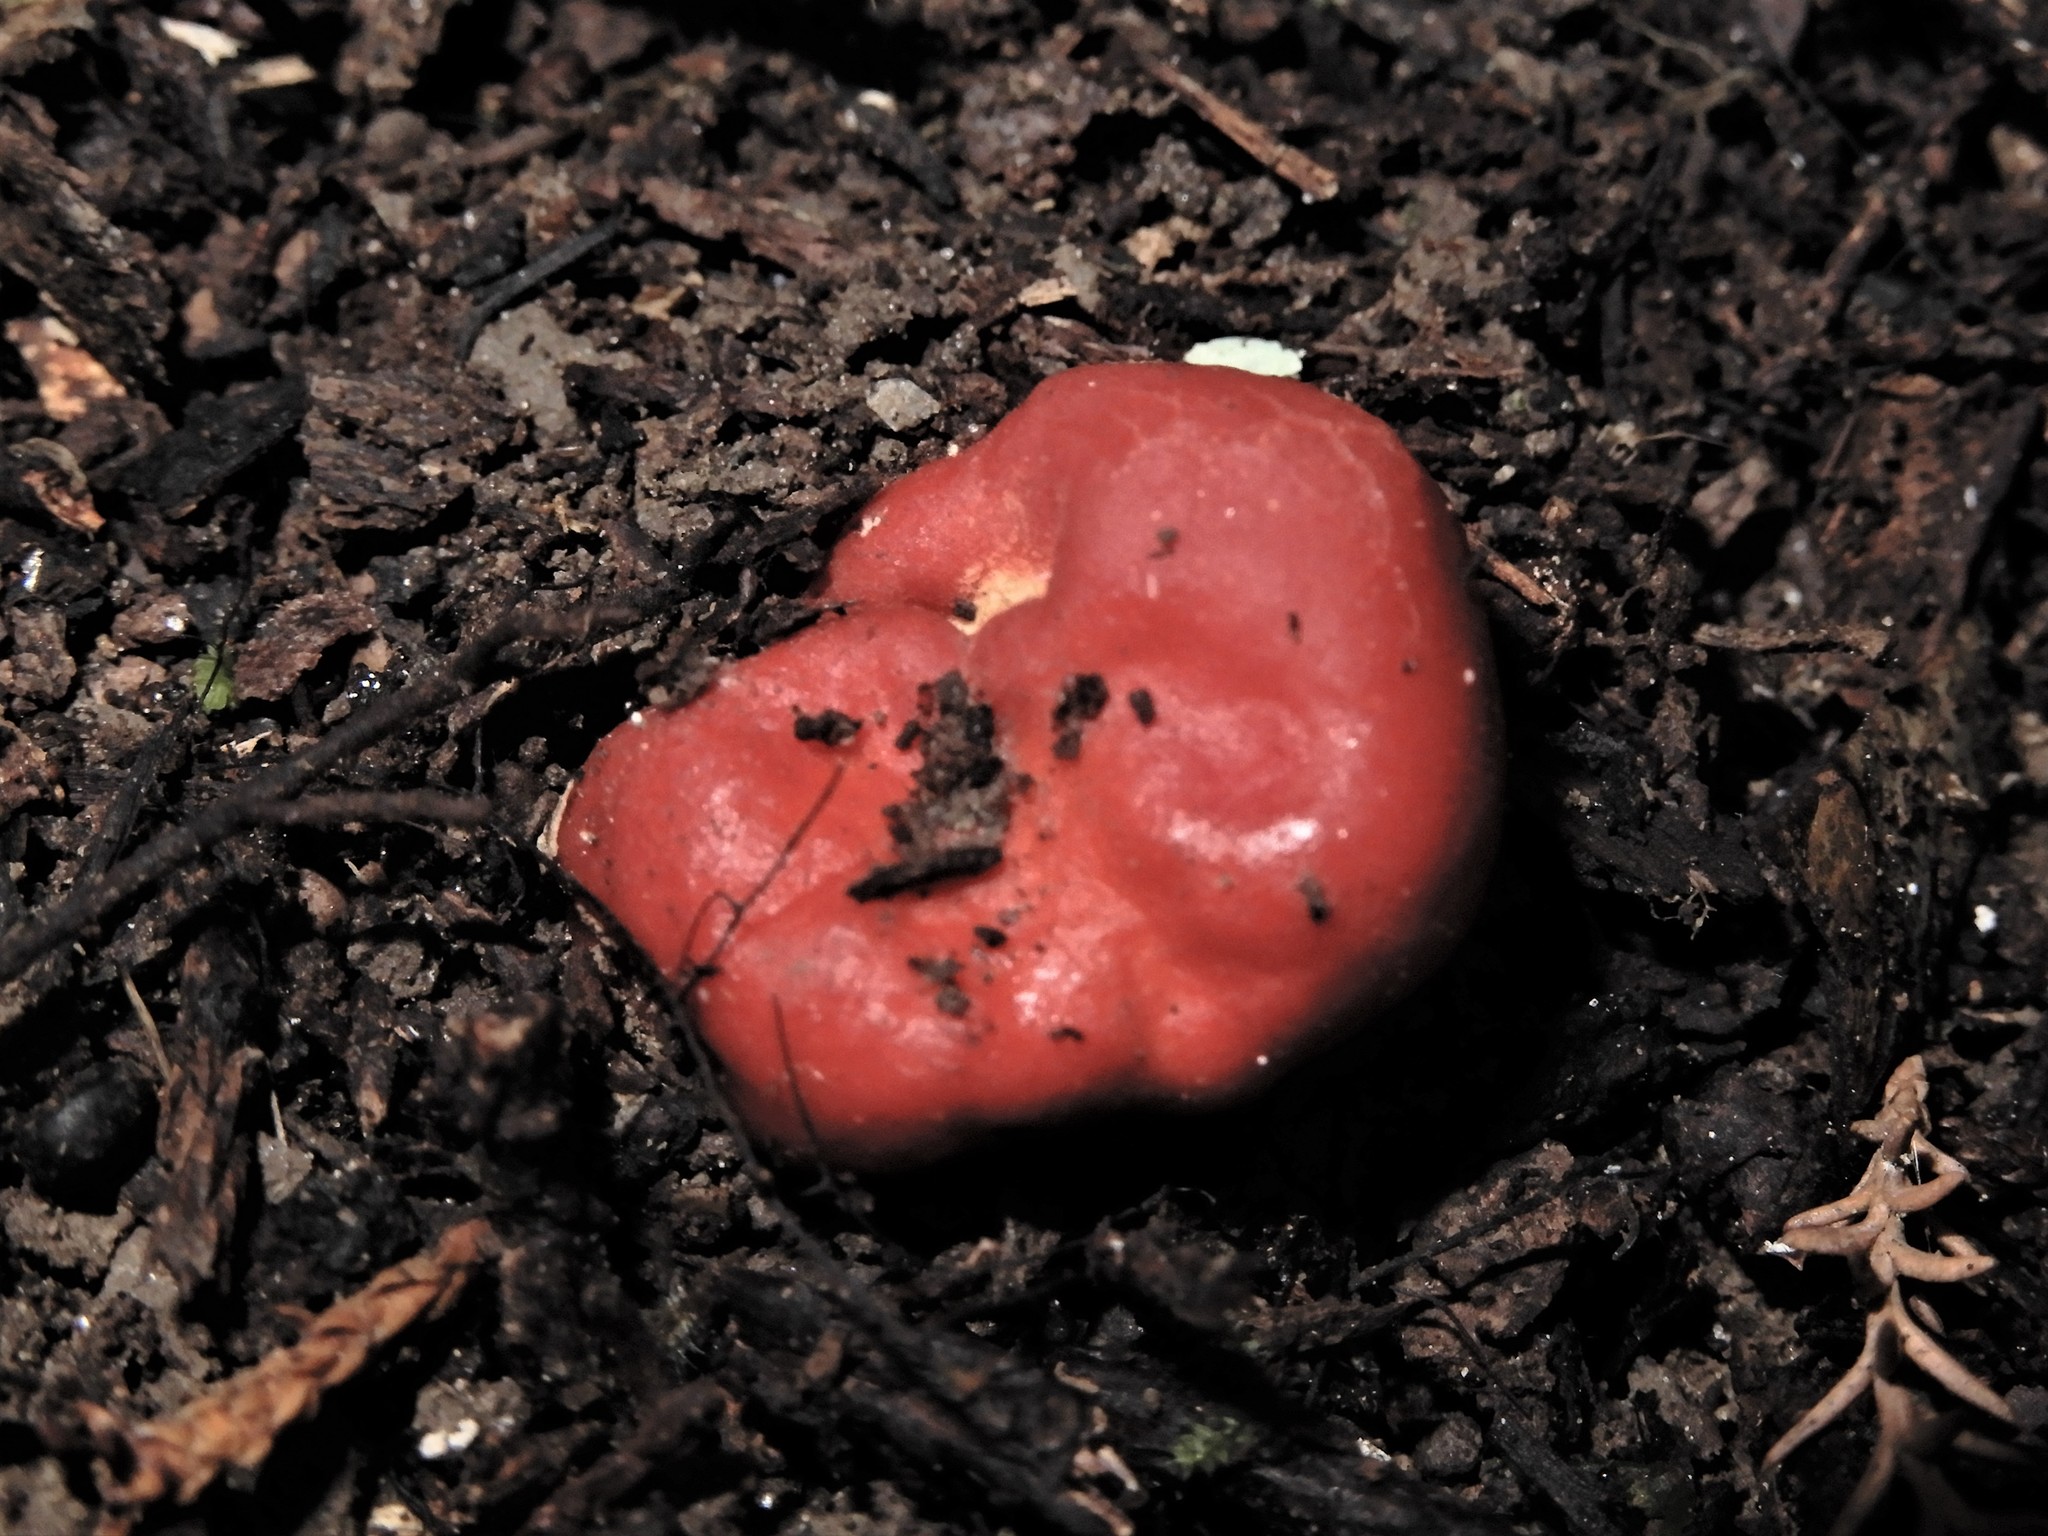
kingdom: Fungi
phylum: Ascomycota
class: Pezizomycetes
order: Pezizales
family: Pyronemataceae
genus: Paurocotylis
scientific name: Paurocotylis pila
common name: Scarlet berry truffle
